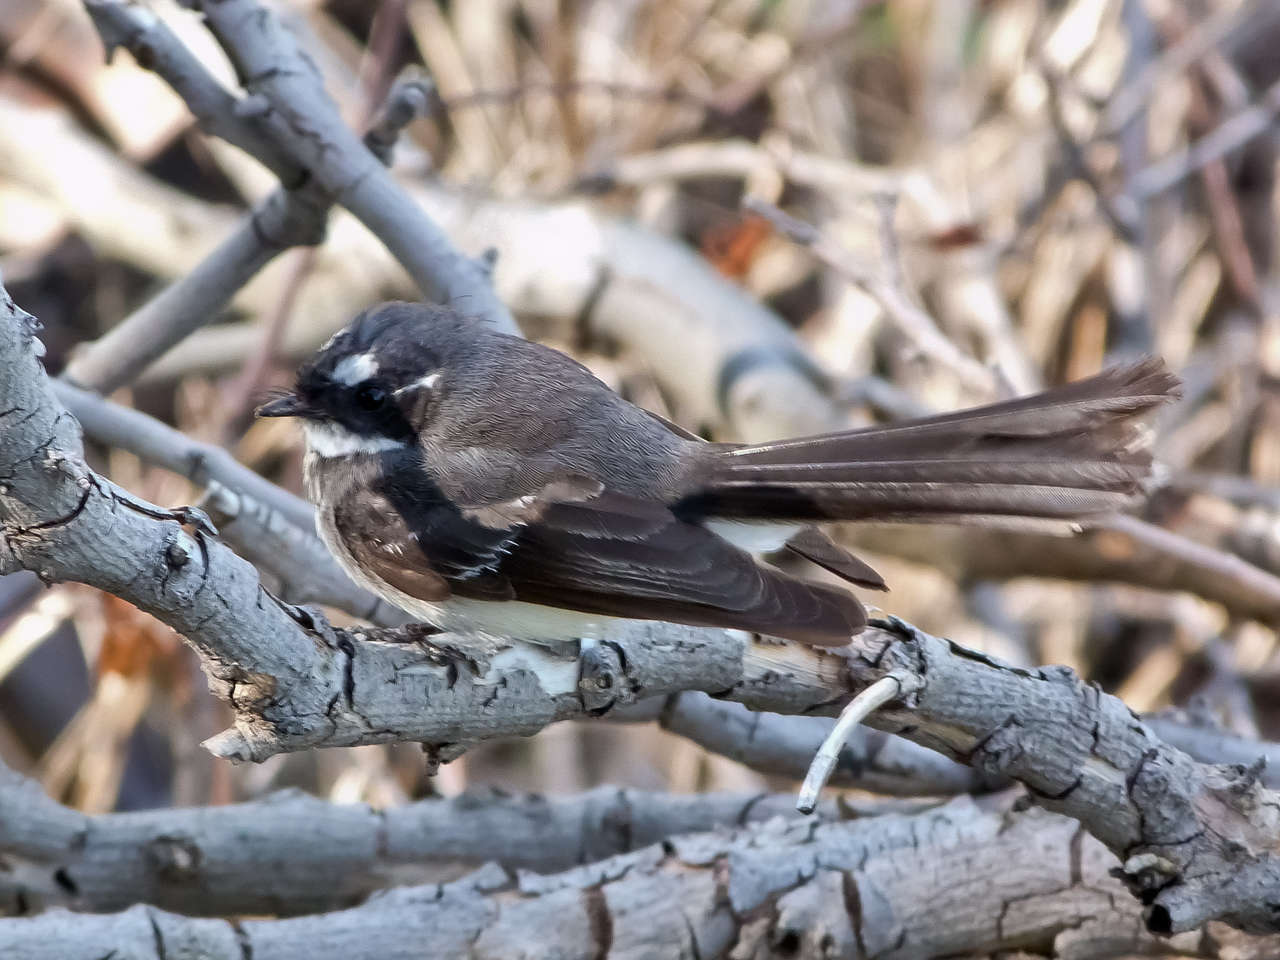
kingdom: Animalia
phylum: Chordata
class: Aves
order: Passeriformes
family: Rhipiduridae
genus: Rhipidura
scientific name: Rhipidura albiscapa
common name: Grey fantail
